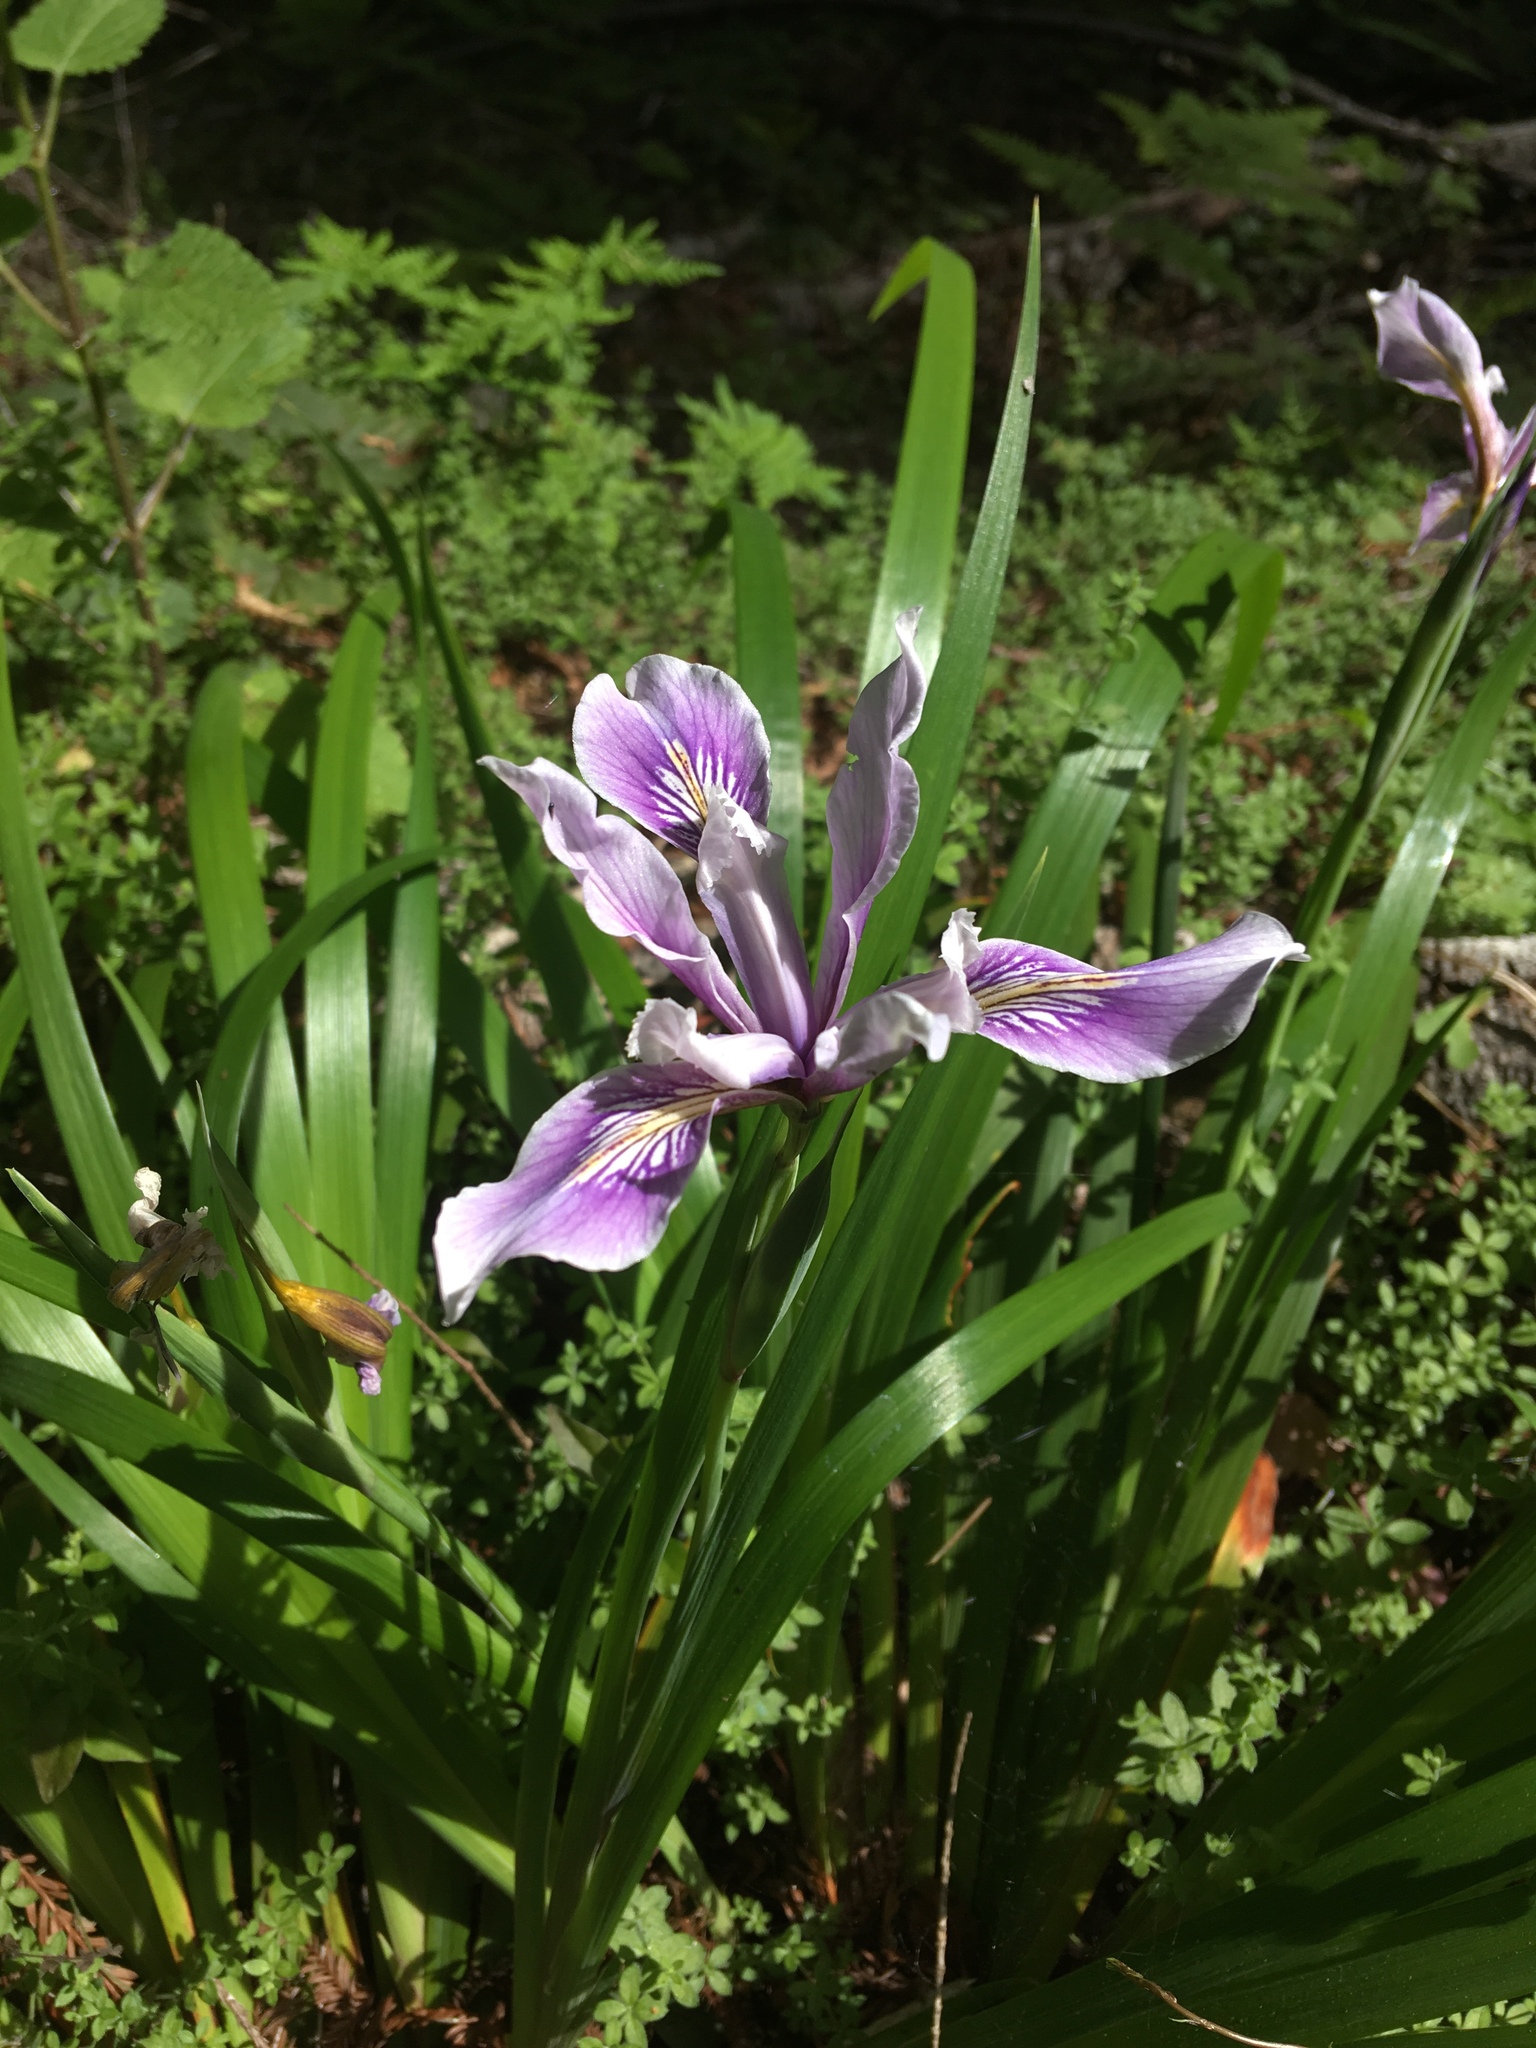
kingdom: Plantae
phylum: Tracheophyta
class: Liliopsida
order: Asparagales
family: Iridaceae
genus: Iris
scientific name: Iris douglasiana
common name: Marin iris
